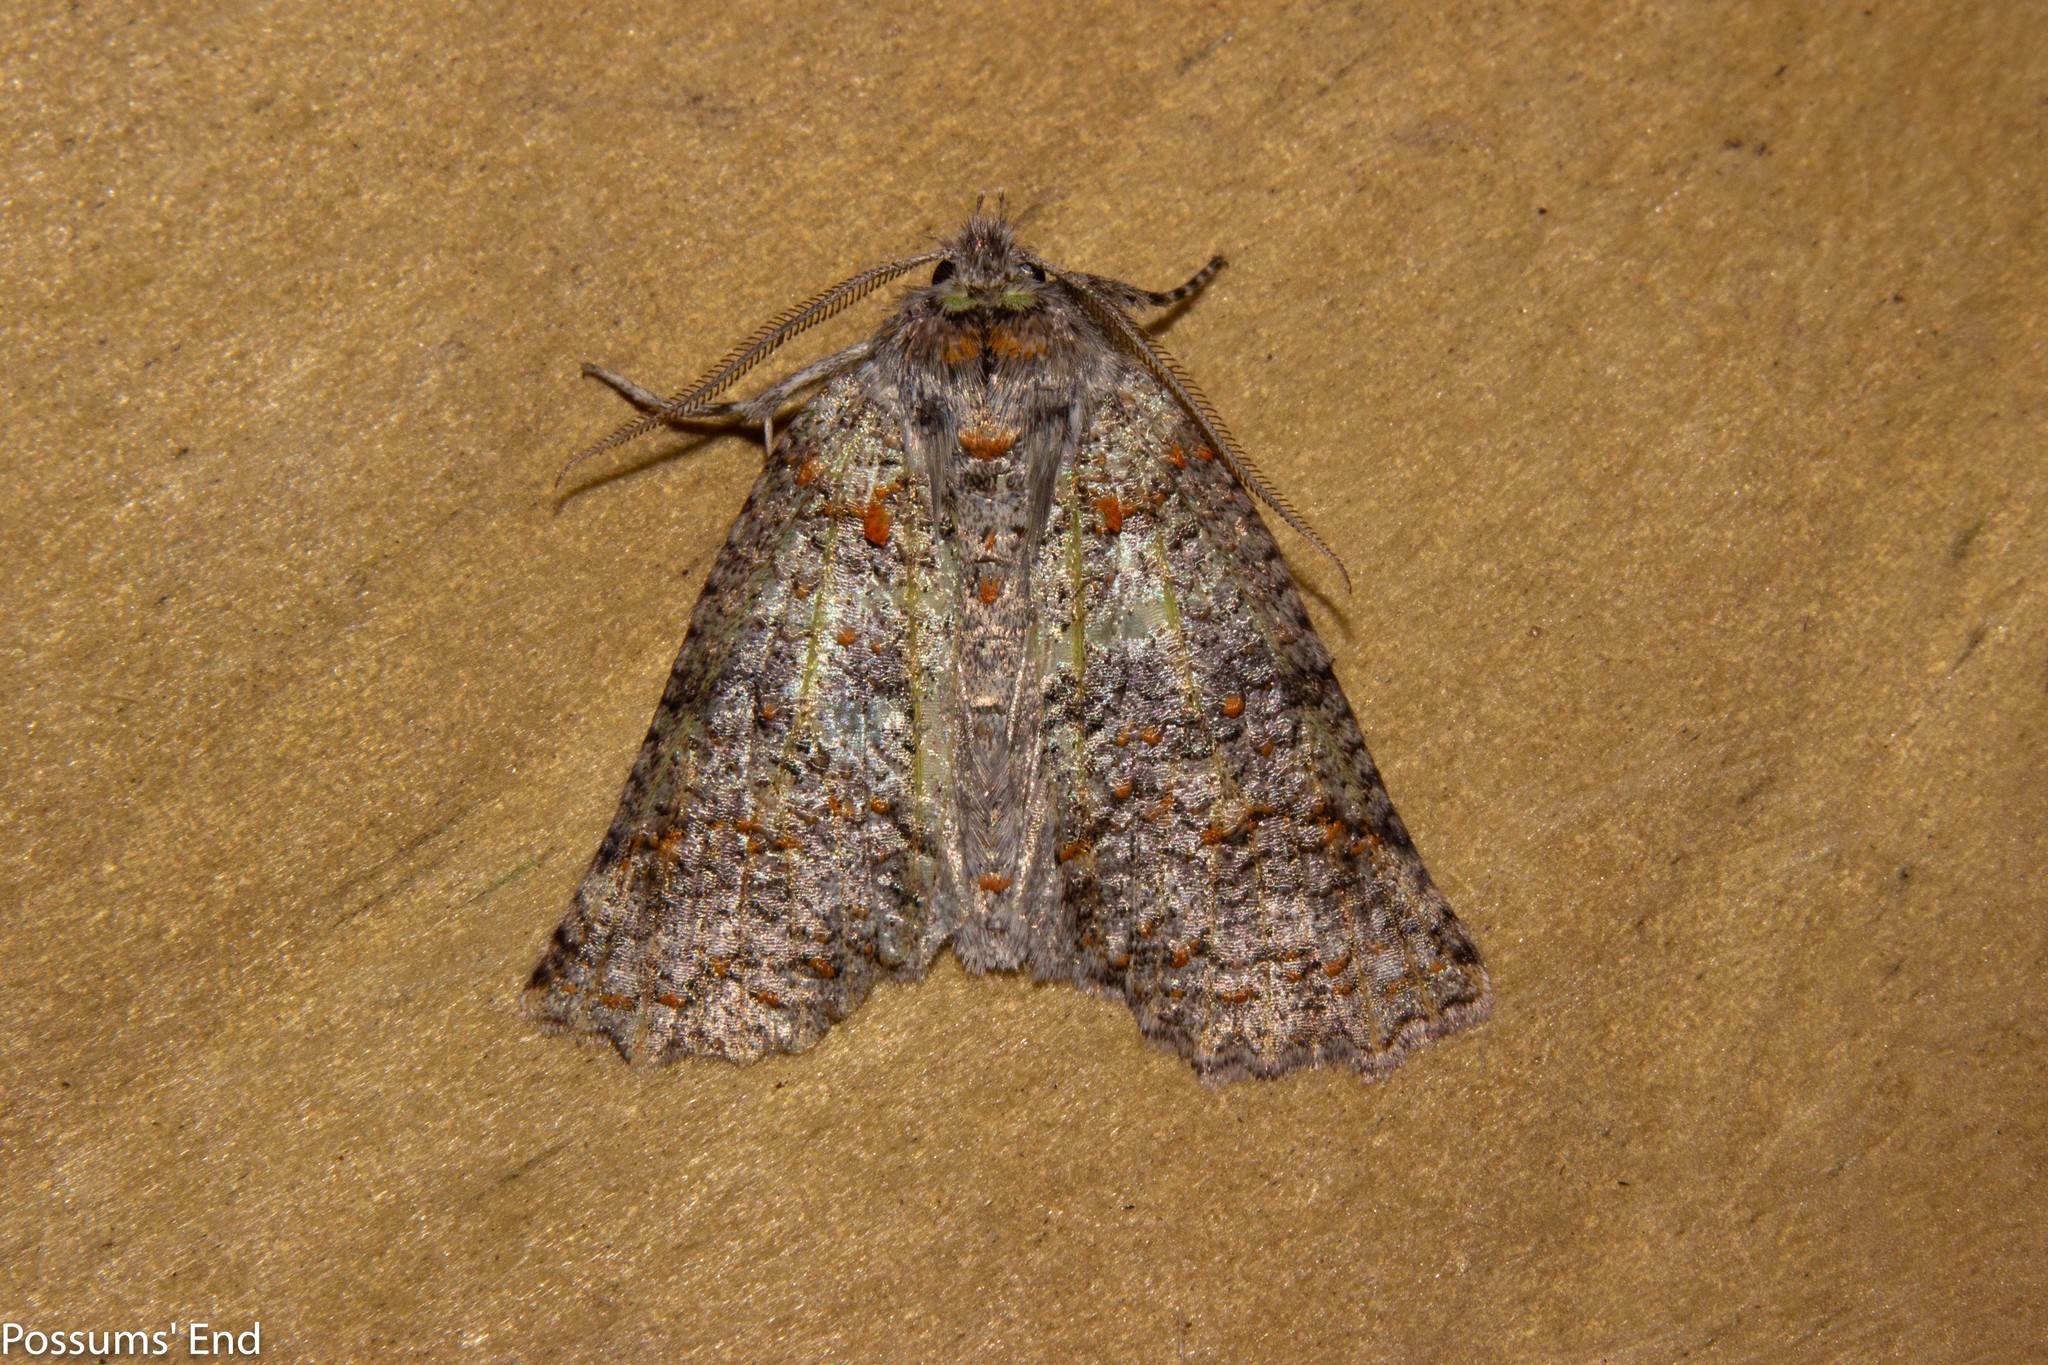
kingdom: Animalia
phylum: Arthropoda
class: Insecta
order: Lepidoptera
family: Geometridae
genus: Declana
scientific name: Declana floccosa
